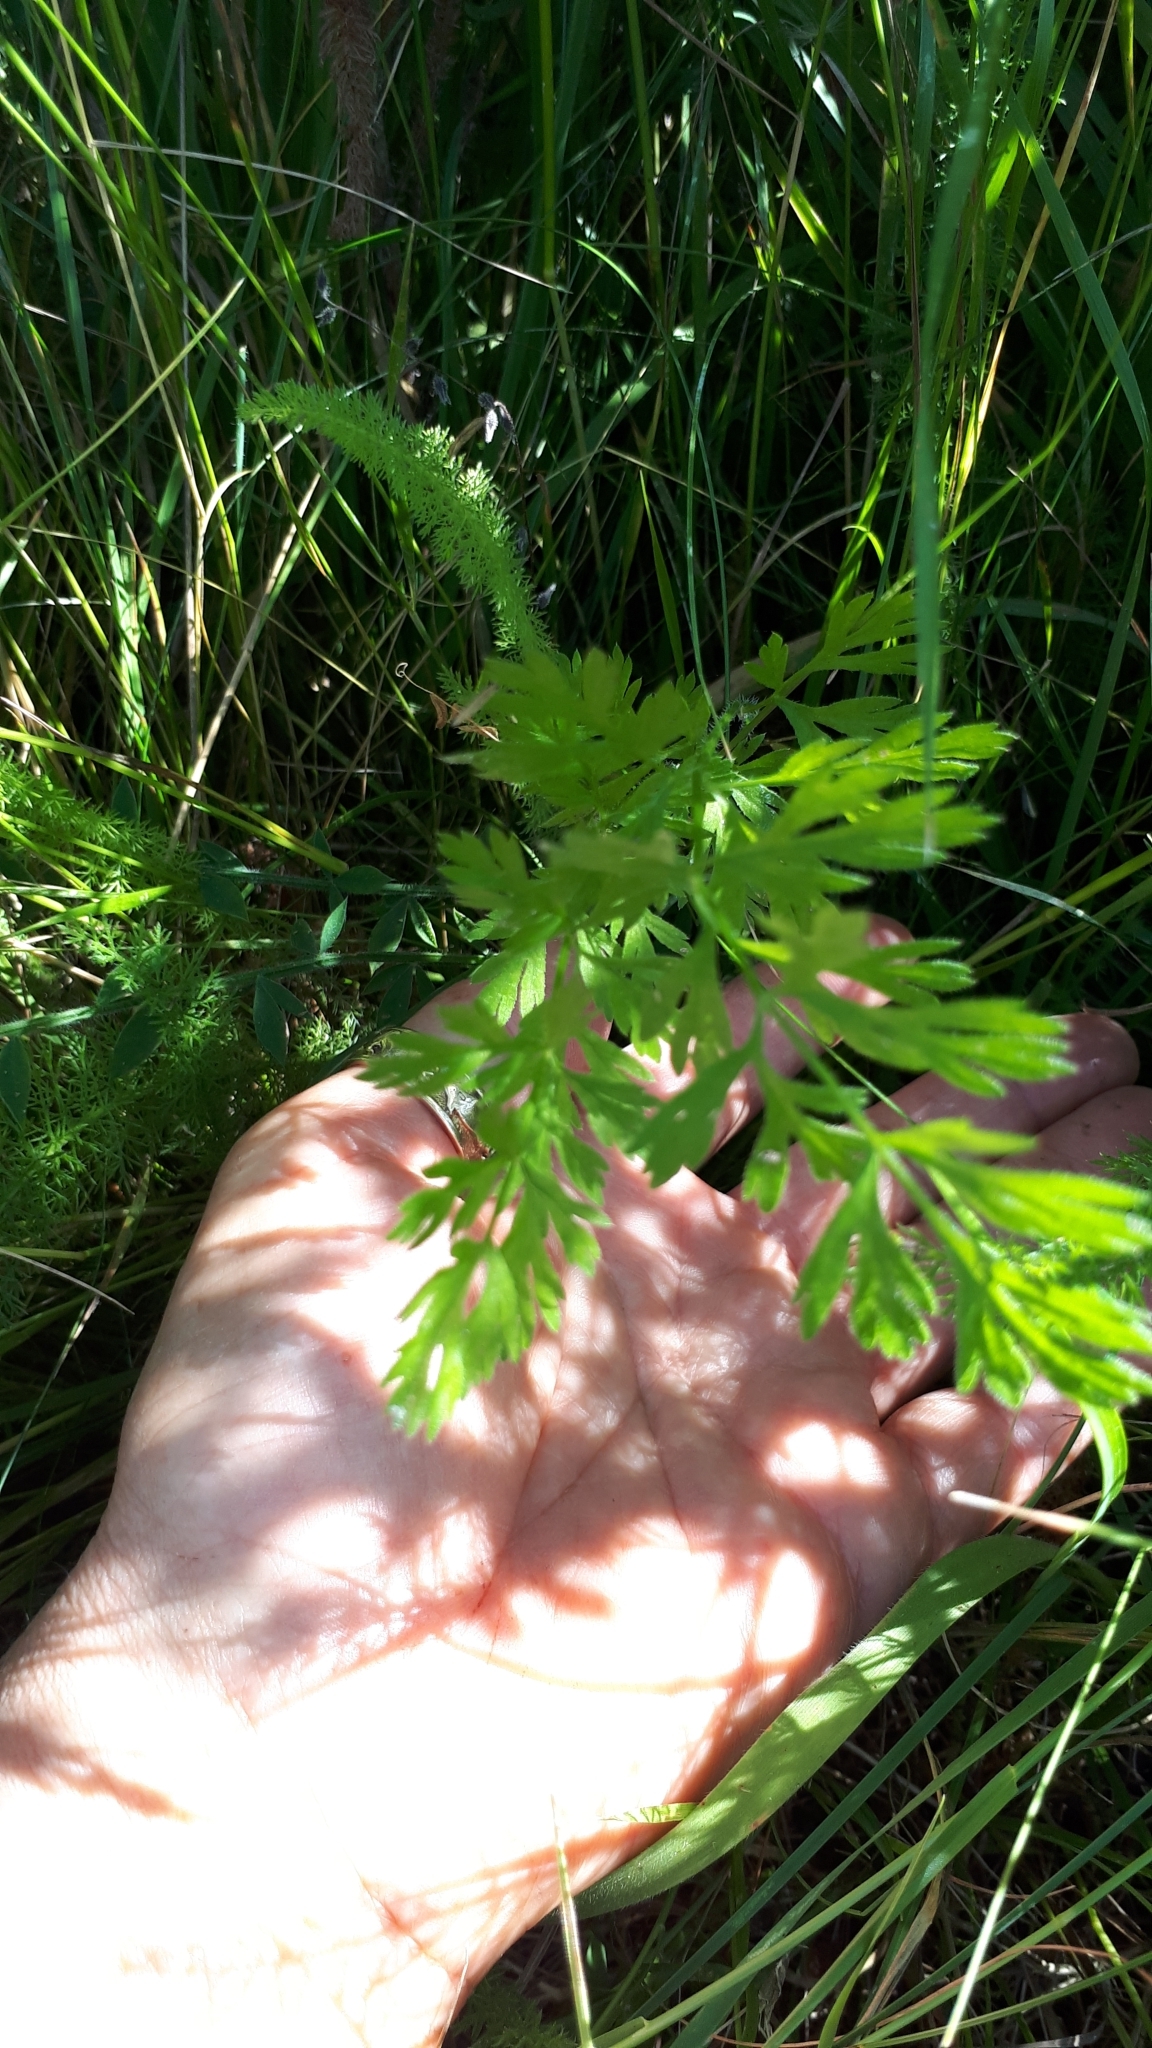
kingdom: Plantae
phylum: Tracheophyta
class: Magnoliopsida
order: Apiales
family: Apiaceae
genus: Daucus
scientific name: Daucus carota
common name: Wild carrot
